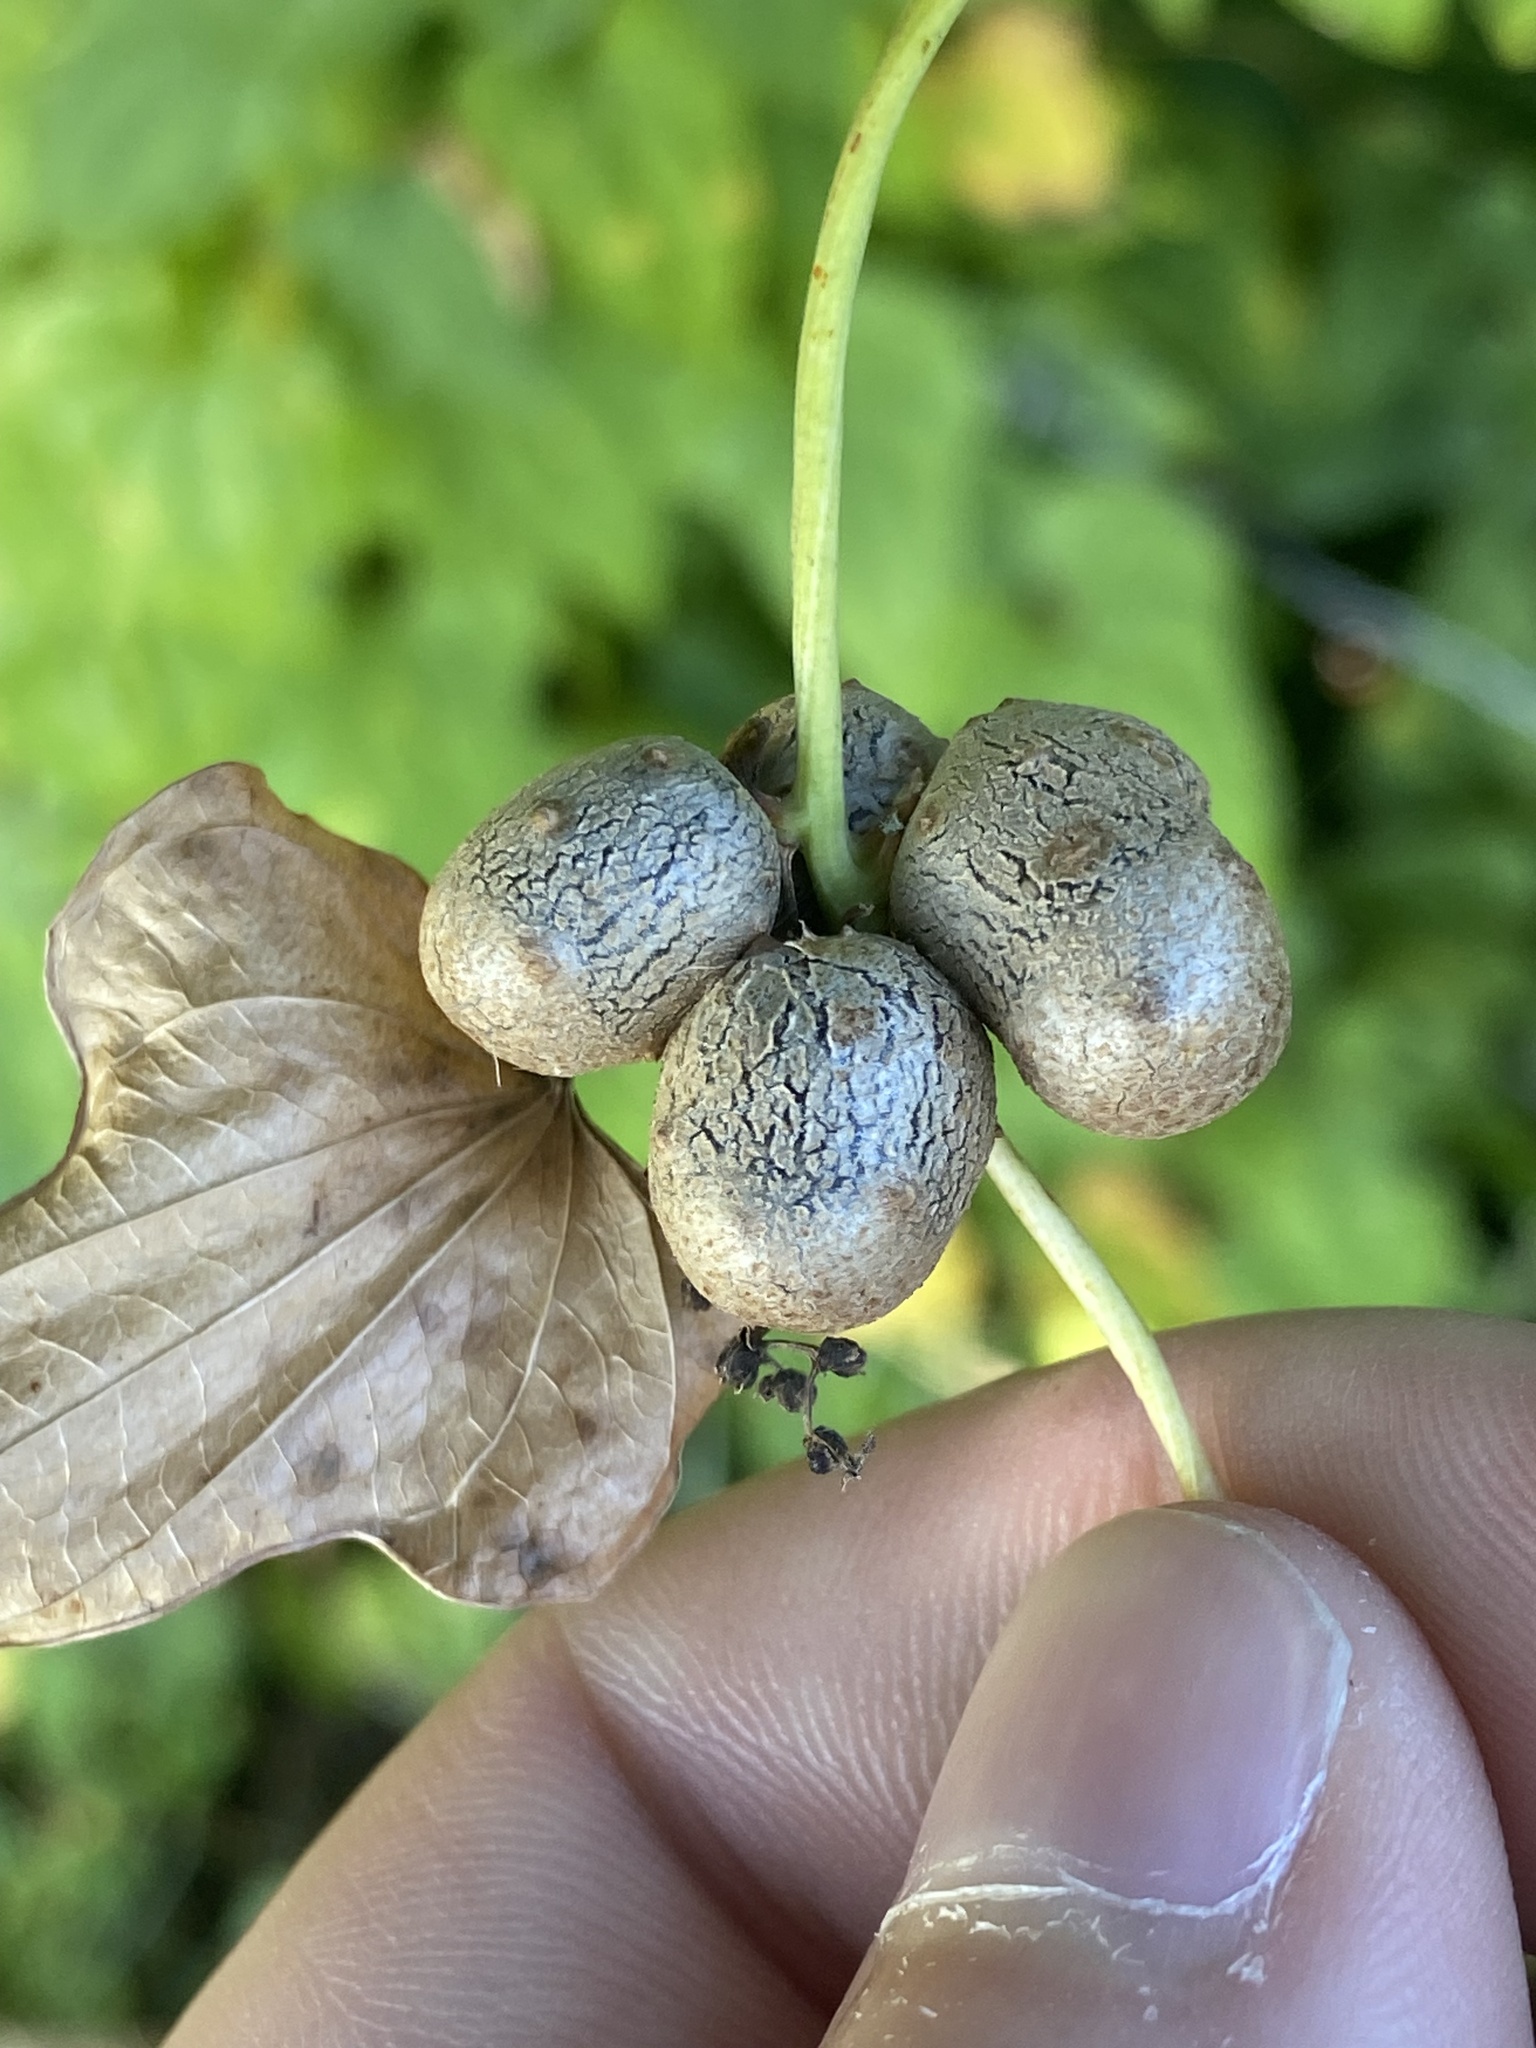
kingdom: Plantae
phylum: Tracheophyta
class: Liliopsida
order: Dioscoreales
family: Dioscoreaceae
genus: Dioscorea
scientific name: Dioscorea polystachya
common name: Chinese yam
